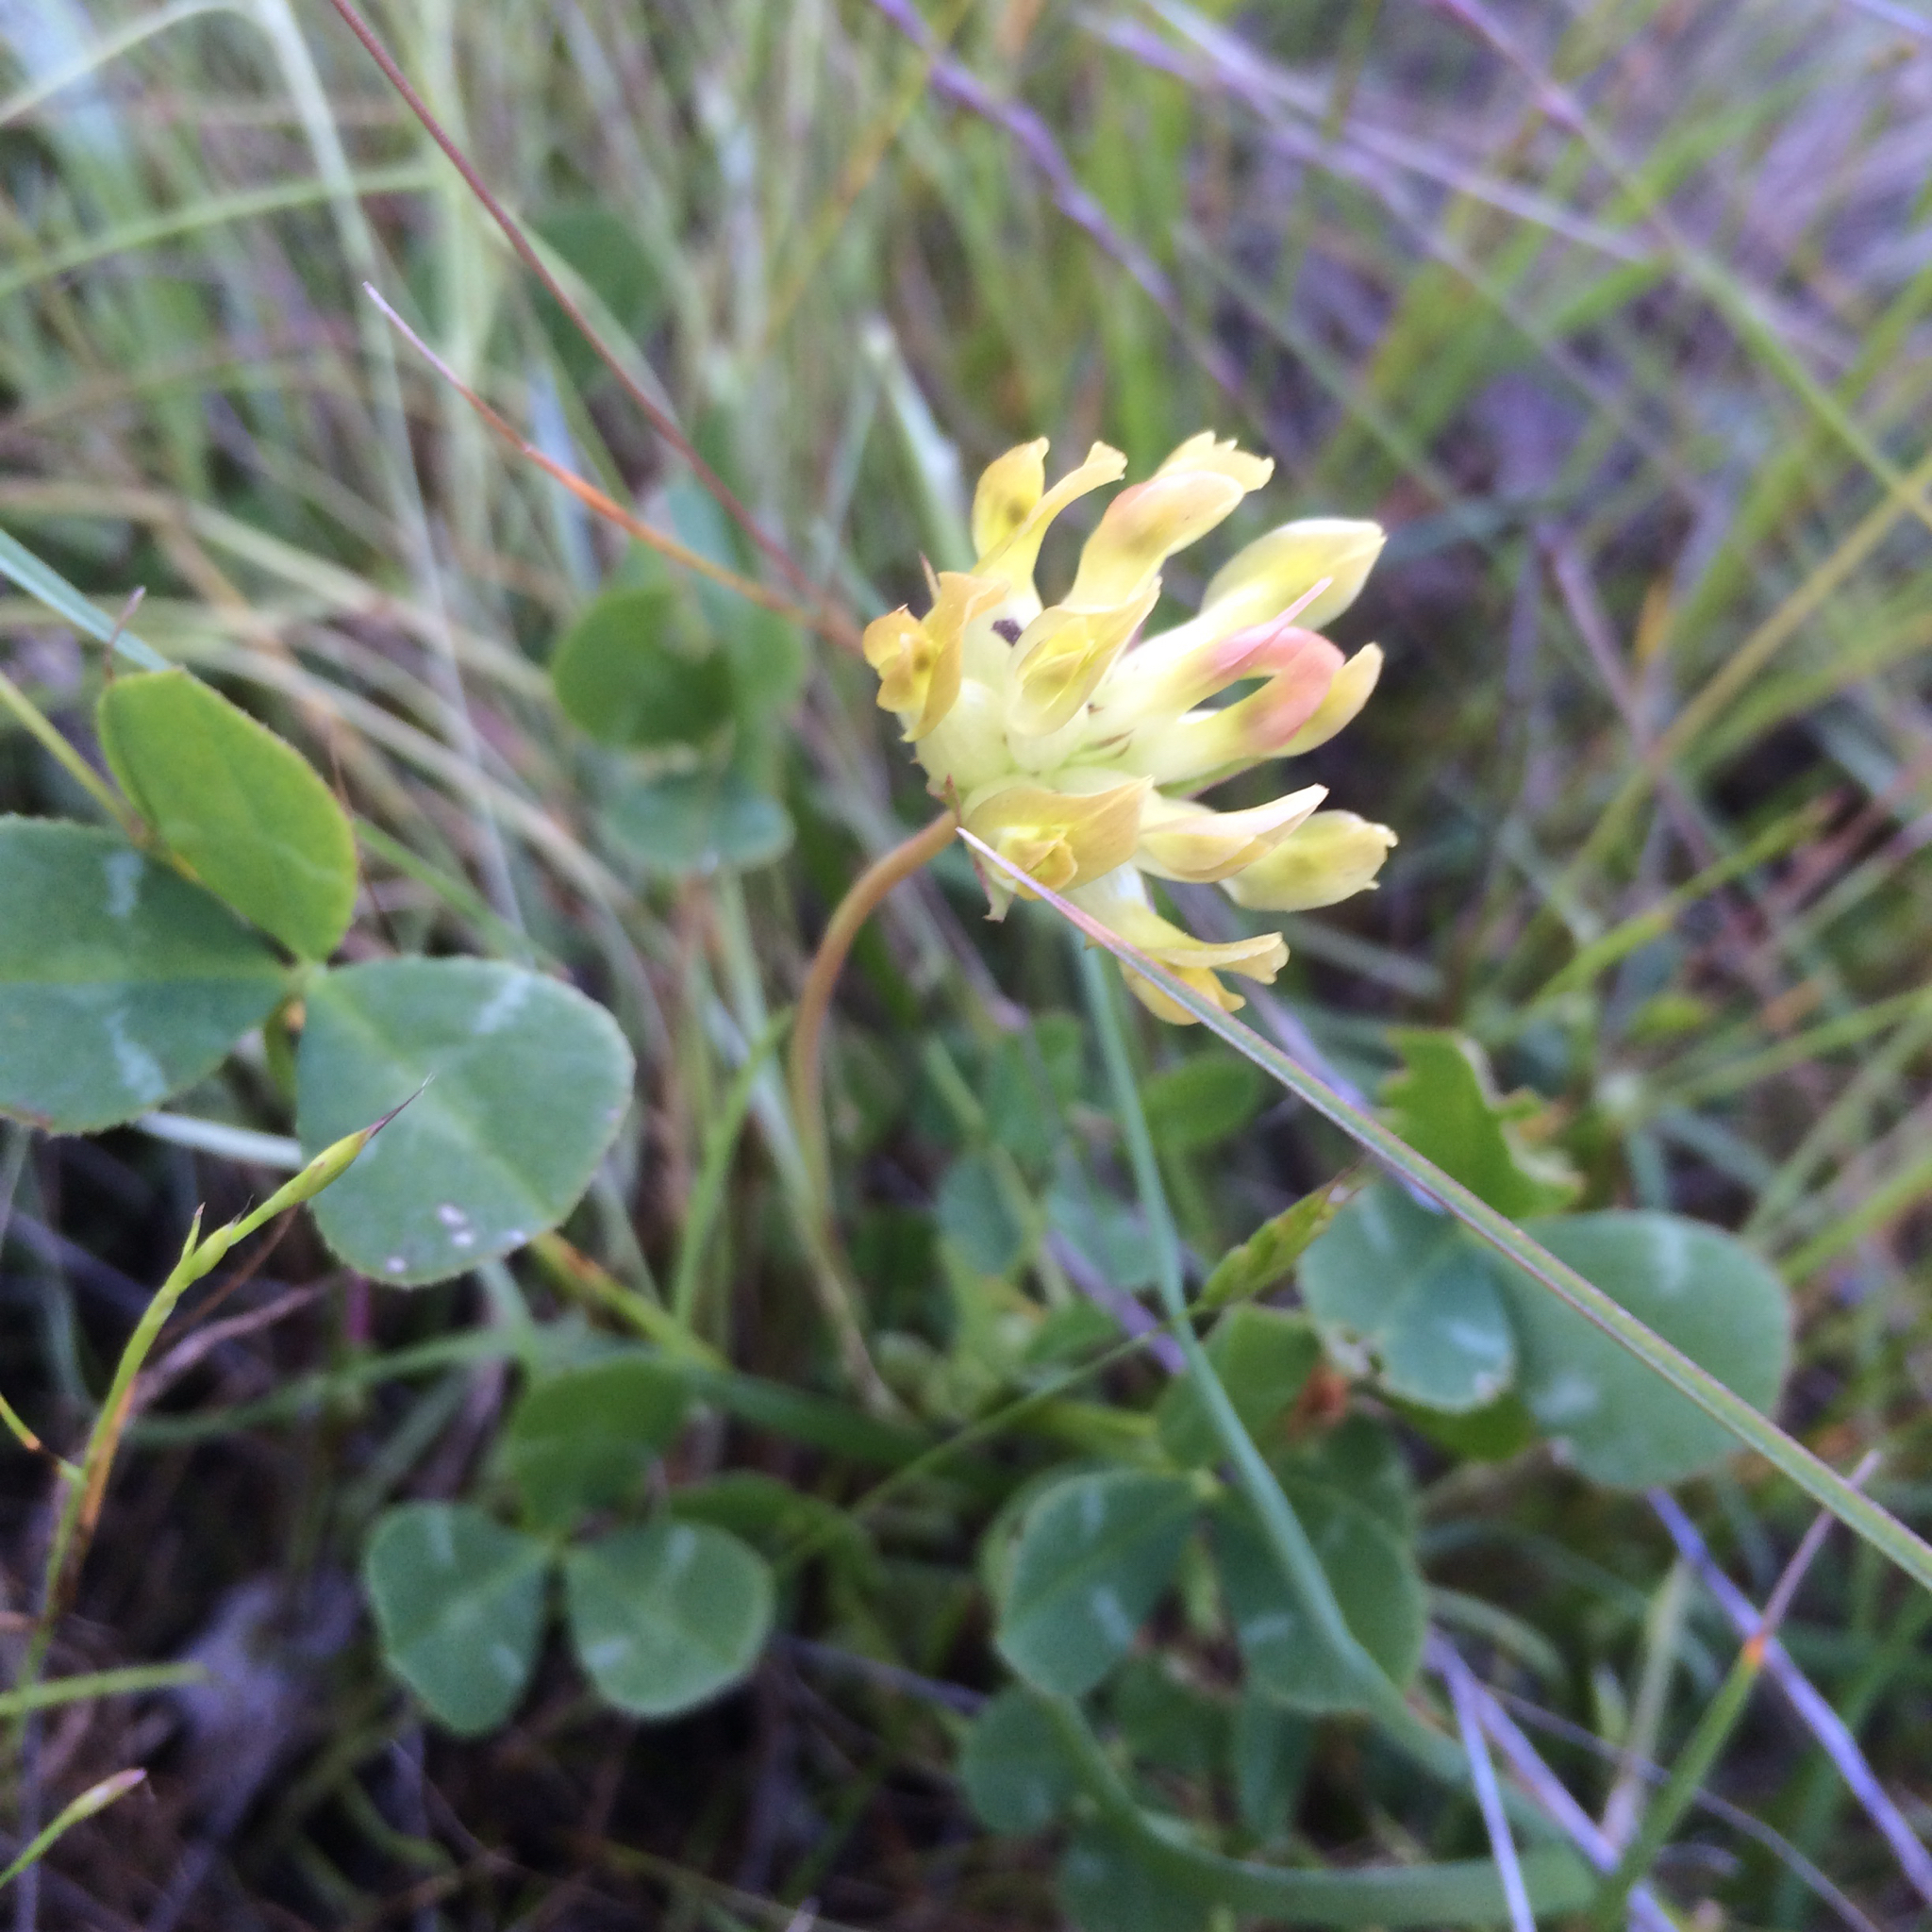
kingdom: Plantae
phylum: Tracheophyta
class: Magnoliopsida
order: Fabales
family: Fabaceae
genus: Trifolium
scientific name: Trifolium fucatum
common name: Puff clover
